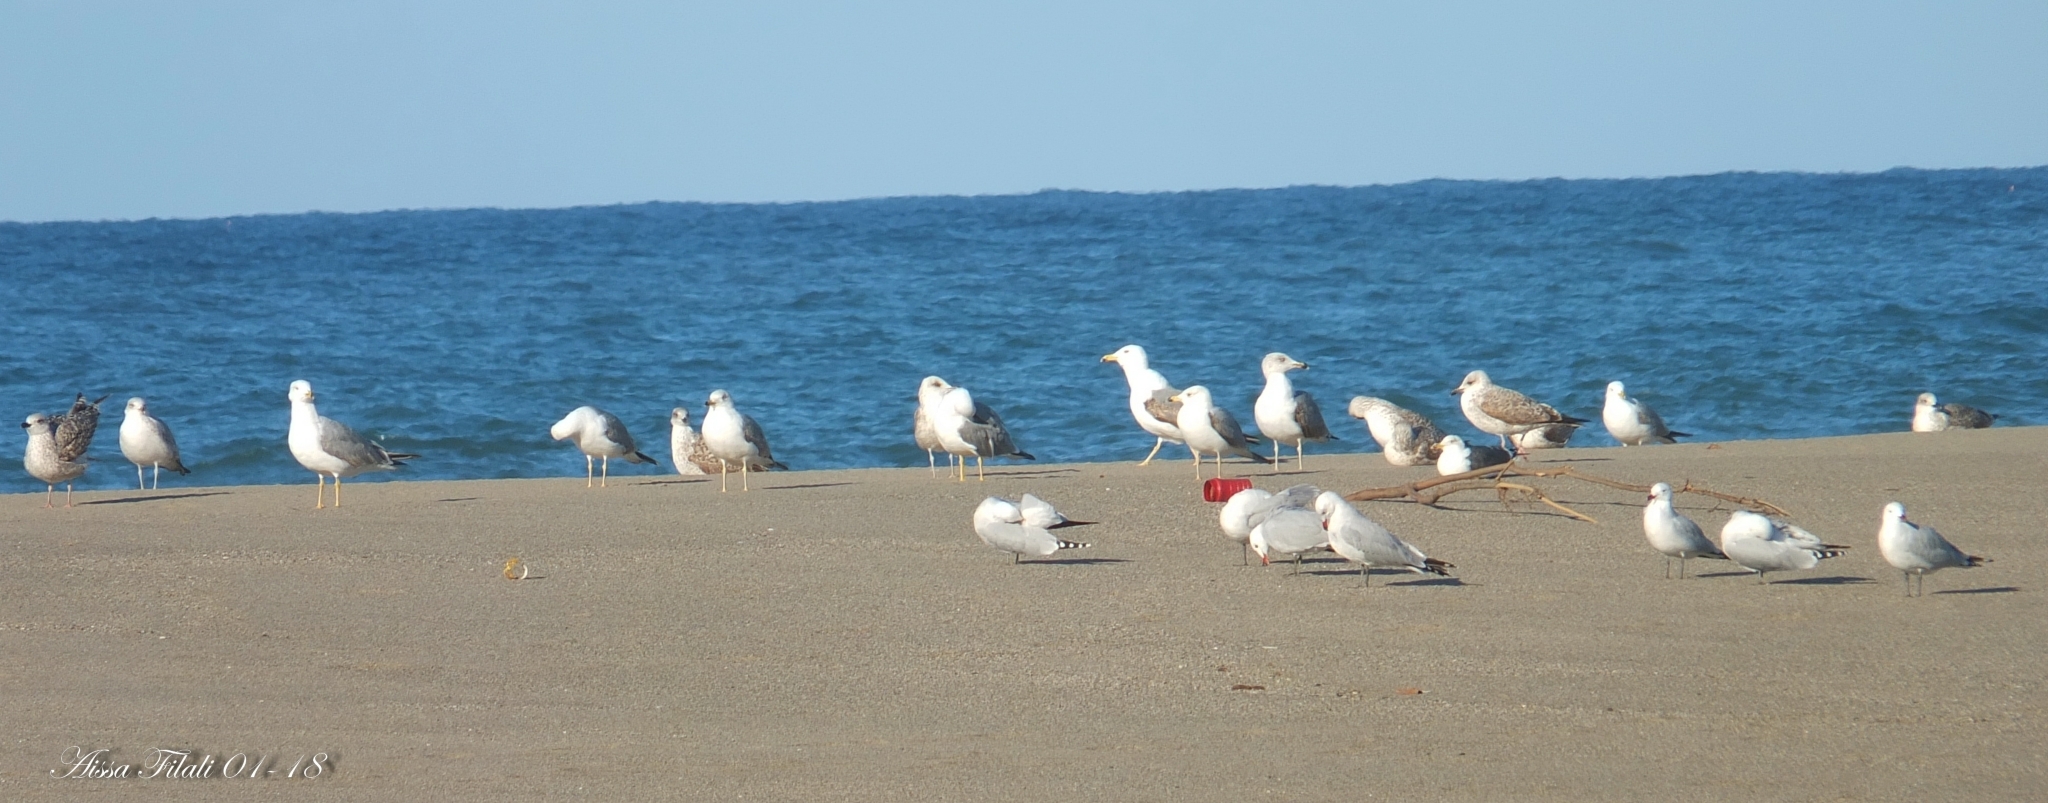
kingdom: Animalia
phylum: Chordata
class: Aves
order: Charadriiformes
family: Laridae
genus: Ichthyaetus
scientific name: Ichthyaetus audouinii
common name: Audouin's gull
